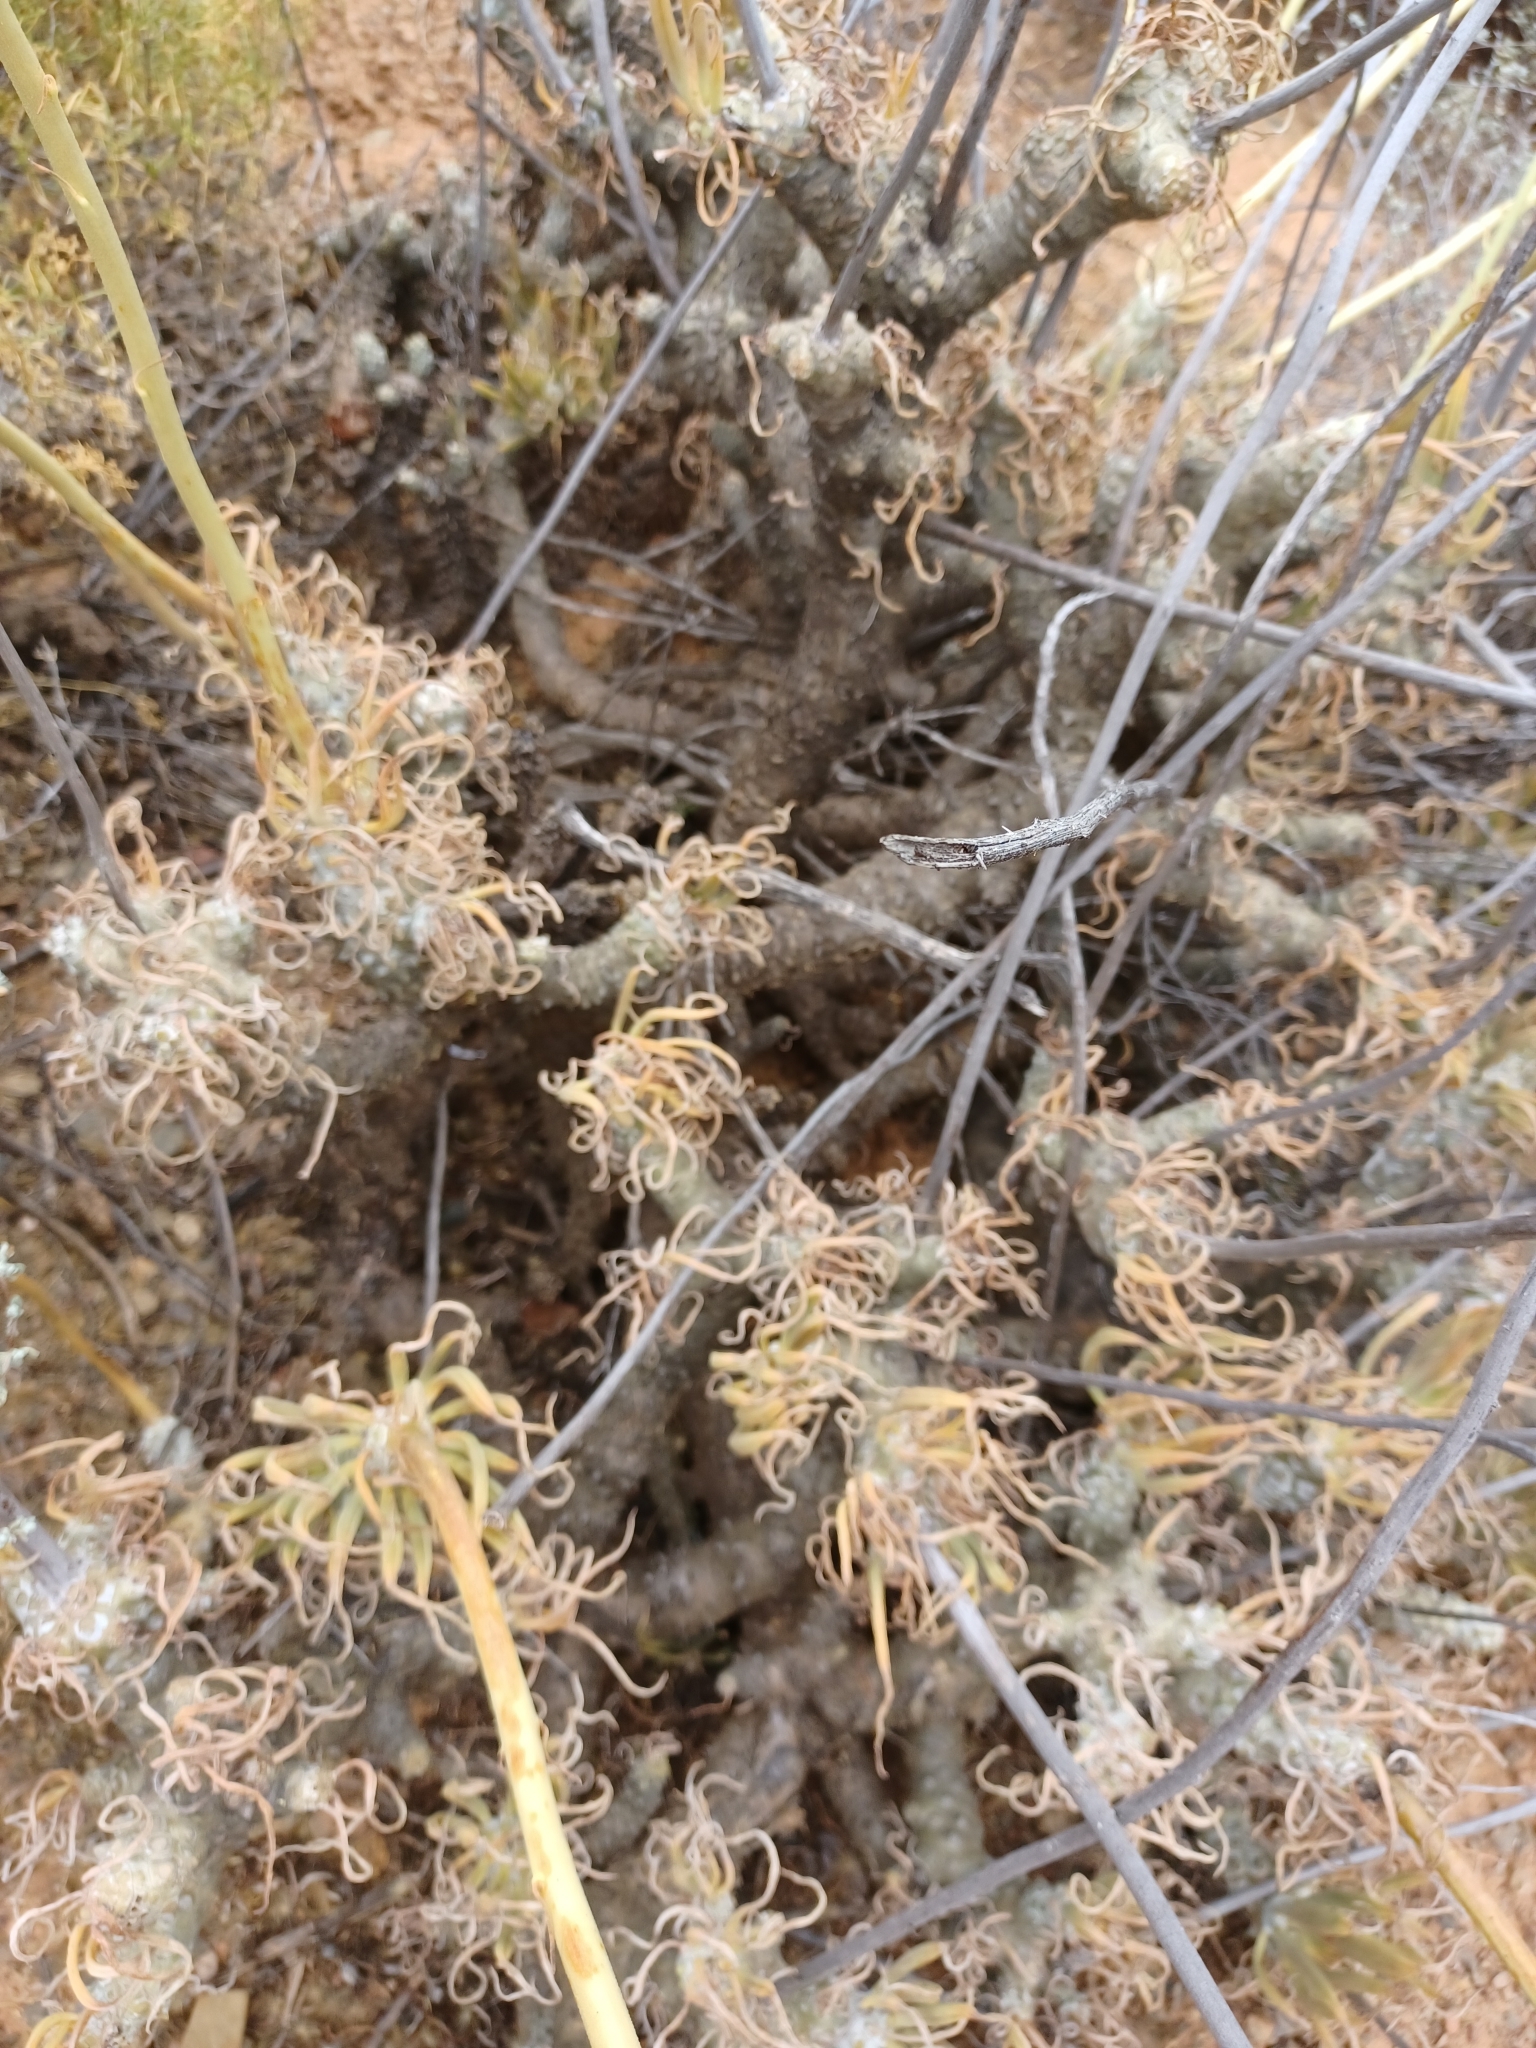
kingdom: Plantae
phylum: Tracheophyta
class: Magnoliopsida
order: Saxifragales
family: Crassulaceae
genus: Tylecodon
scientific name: Tylecodon wallichii
